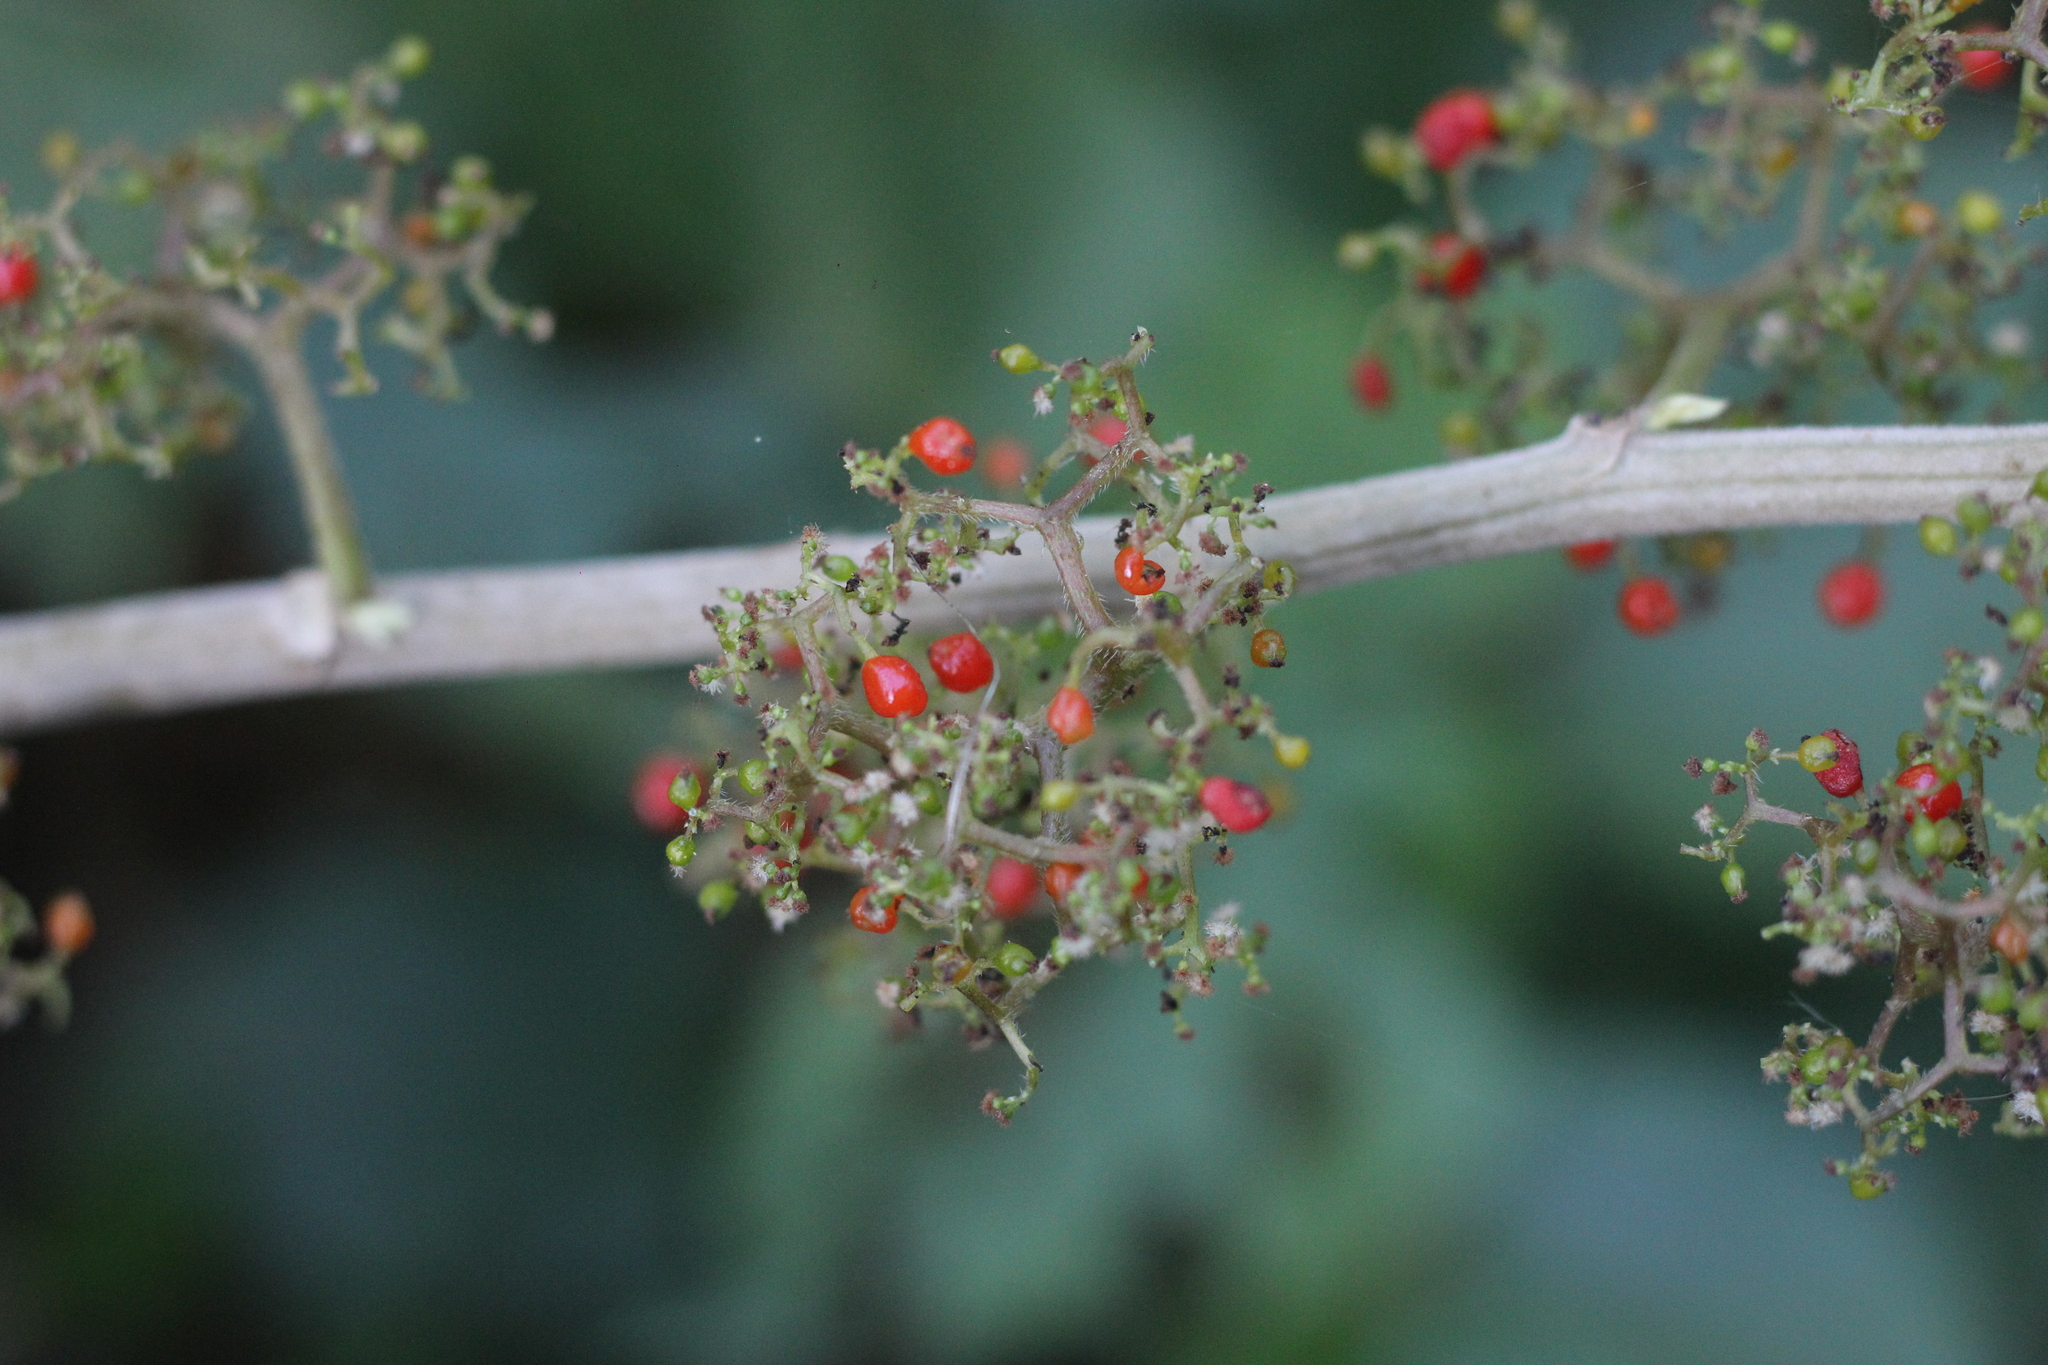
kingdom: Plantae
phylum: Tracheophyta
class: Magnoliopsida
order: Rosales
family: Urticaceae
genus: Urera
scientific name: Urera aurantiaca
